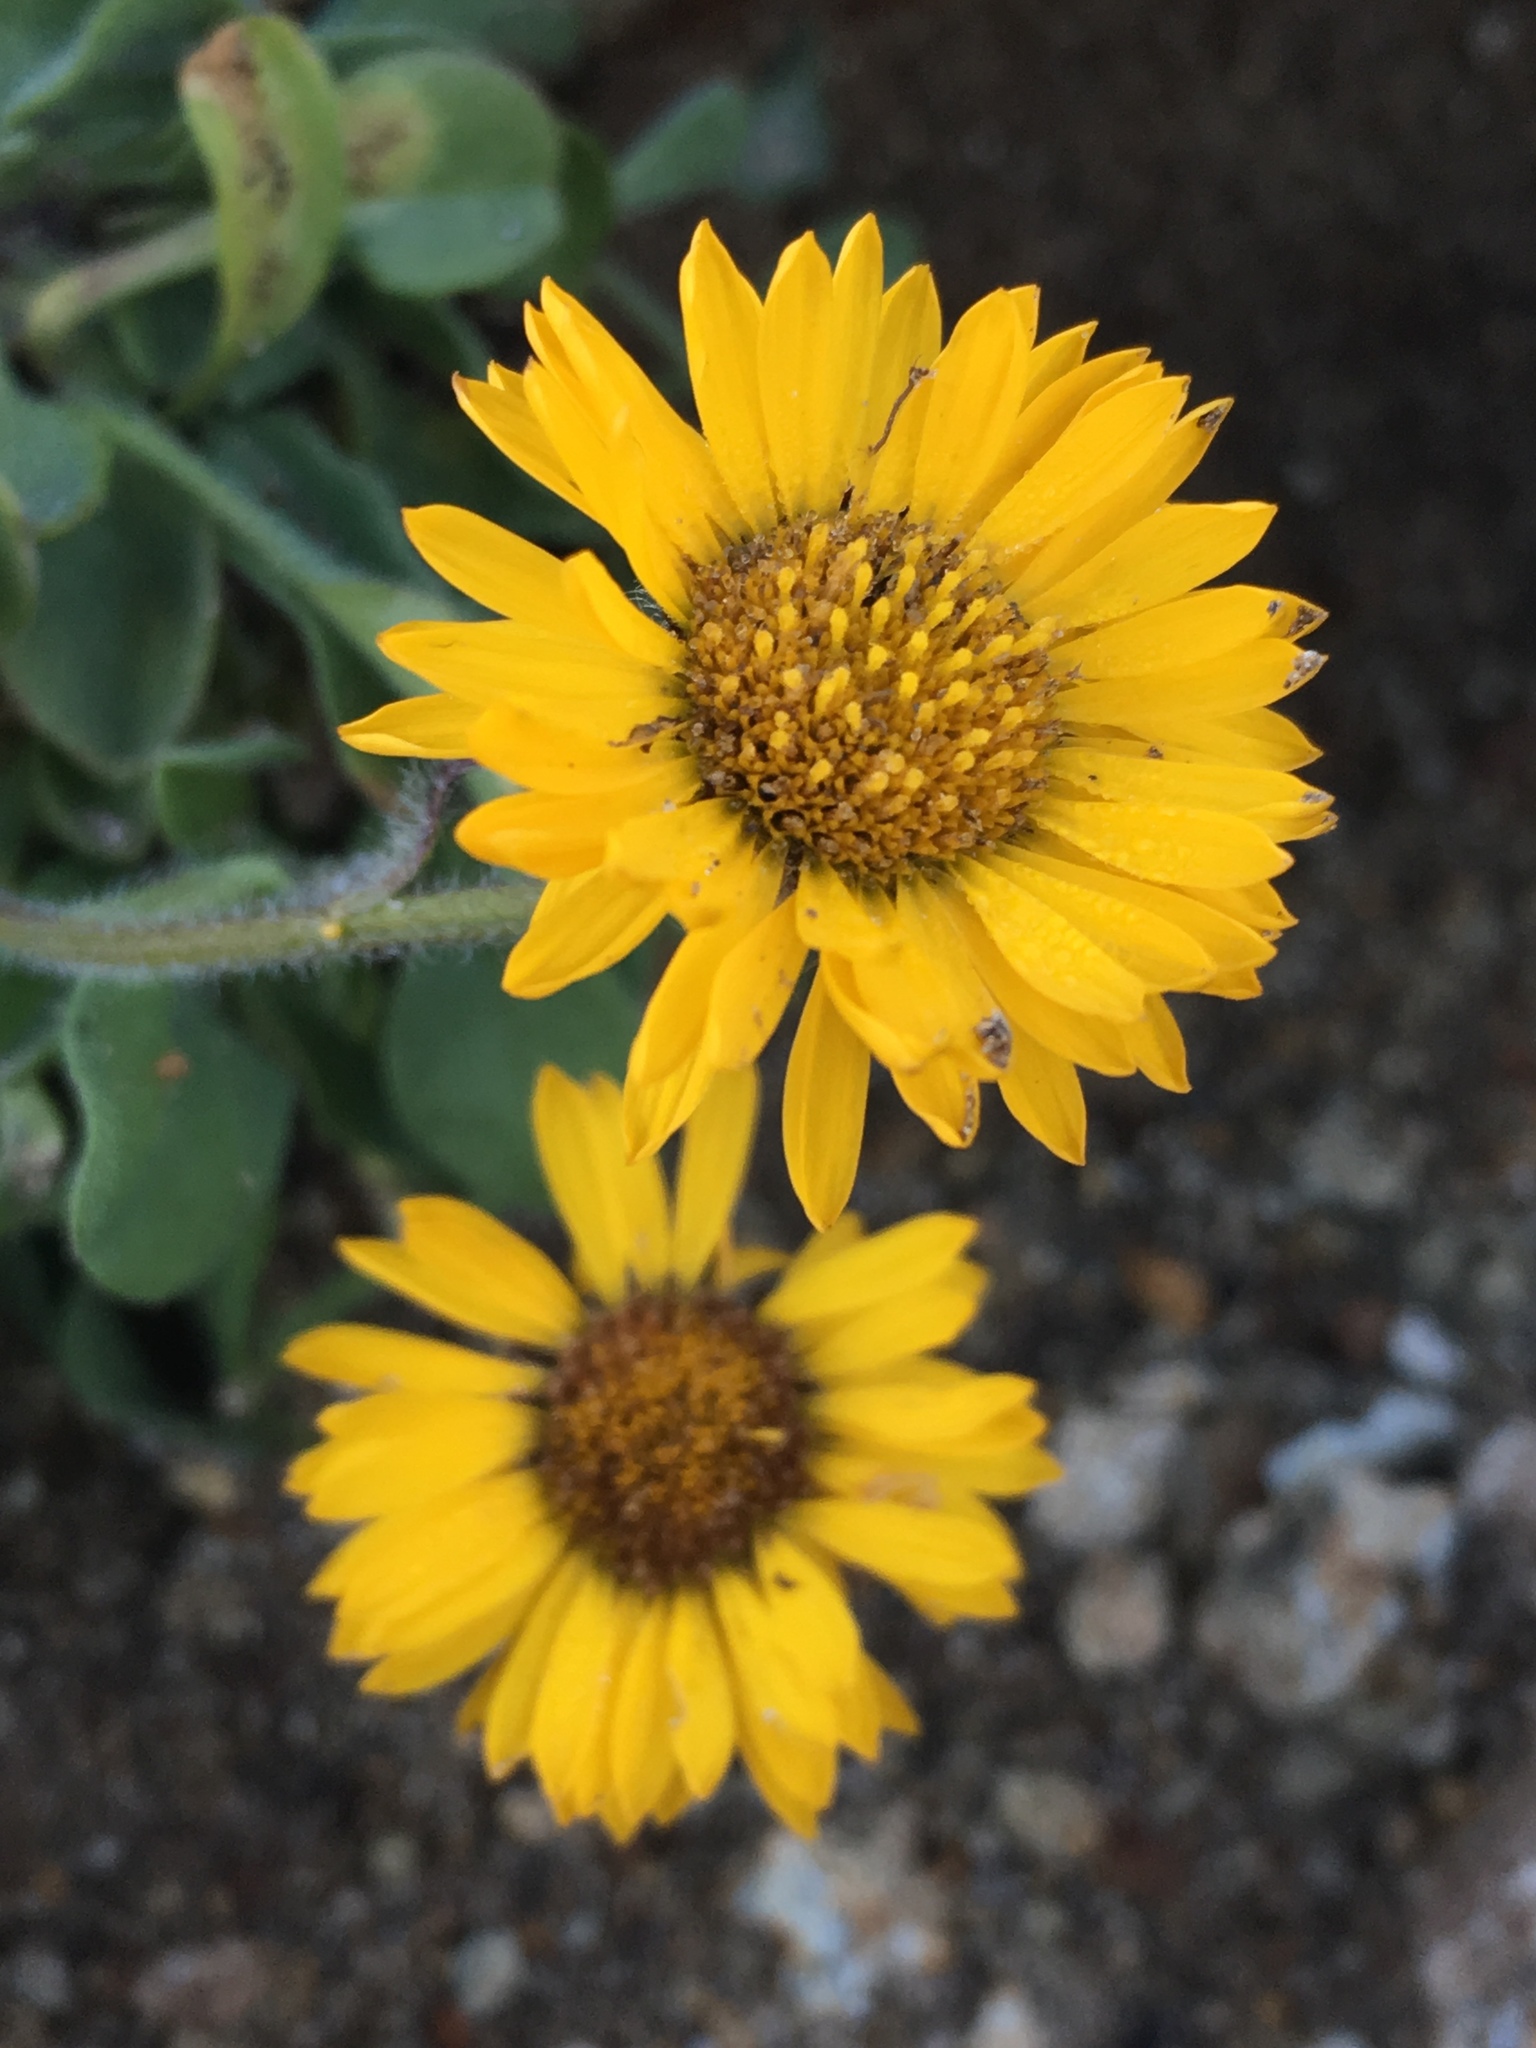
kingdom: Plantae
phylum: Tracheophyta
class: Magnoliopsida
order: Asterales
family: Asteraceae
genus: Erigeron
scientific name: Erigeron aureus
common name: Alpine yellow fleabane
